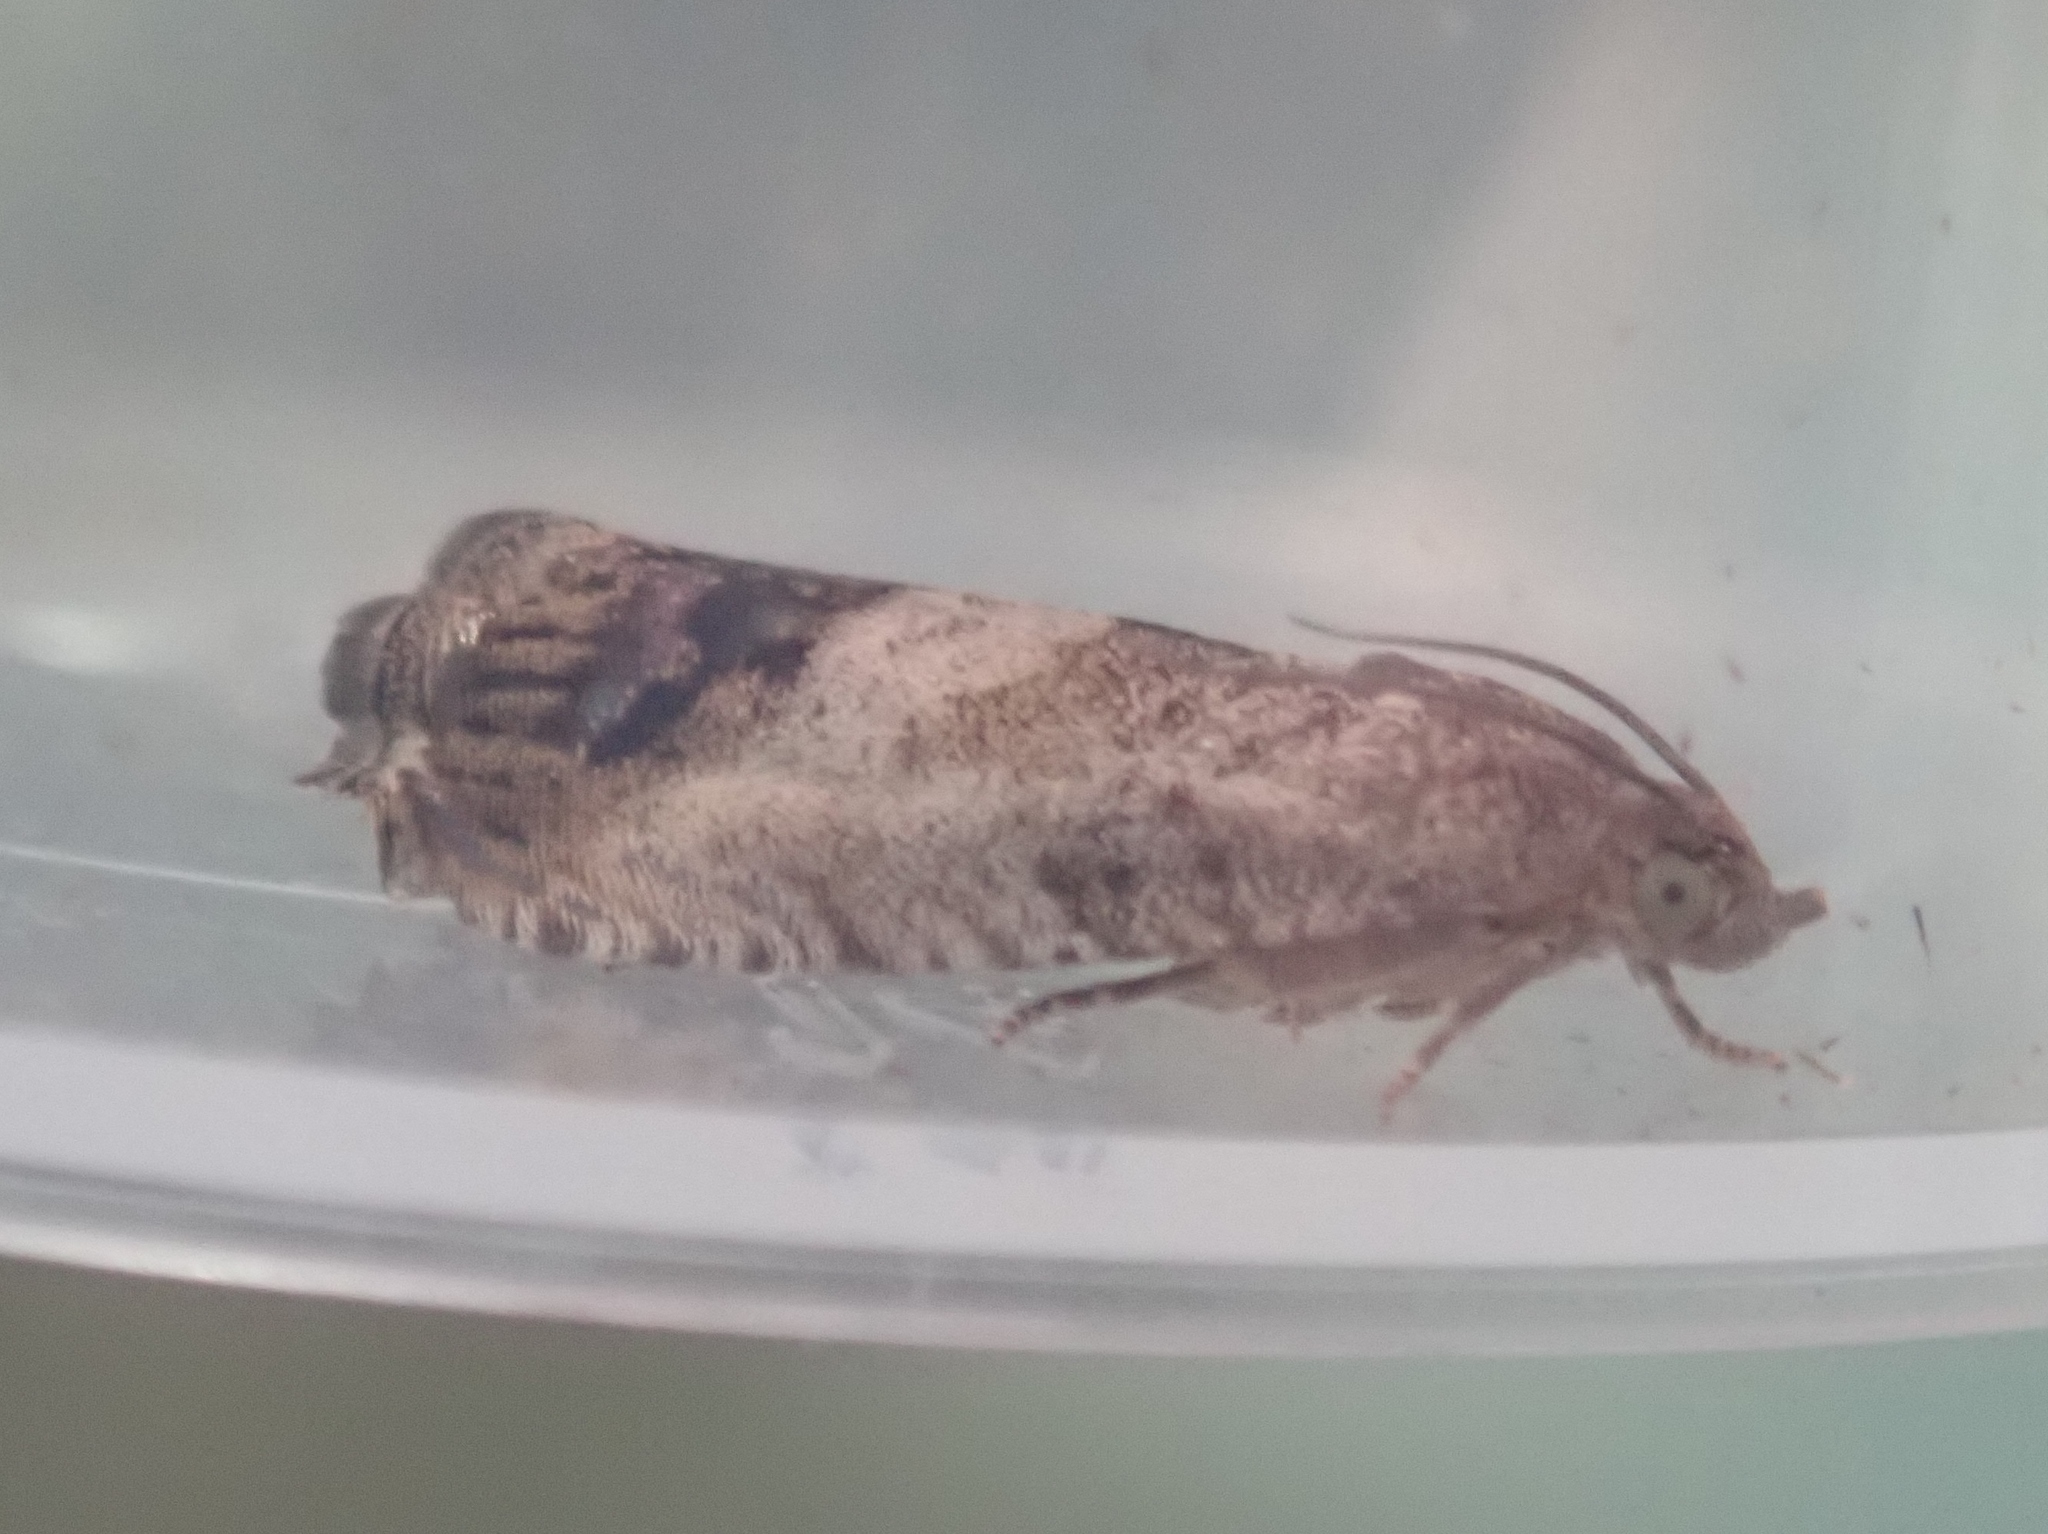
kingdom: Animalia
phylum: Arthropoda
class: Insecta
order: Lepidoptera
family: Tortricidae
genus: Cydia
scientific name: Cydia splendana
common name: De: kastanienwickler, eichenwickler es: oruga de la castaña fr: carpocapse des châtaignes it: cidia o tortrice tardiva delle castagne pt: bichado das castanhas gb: acorn moth, chestnut fruit tortrix
